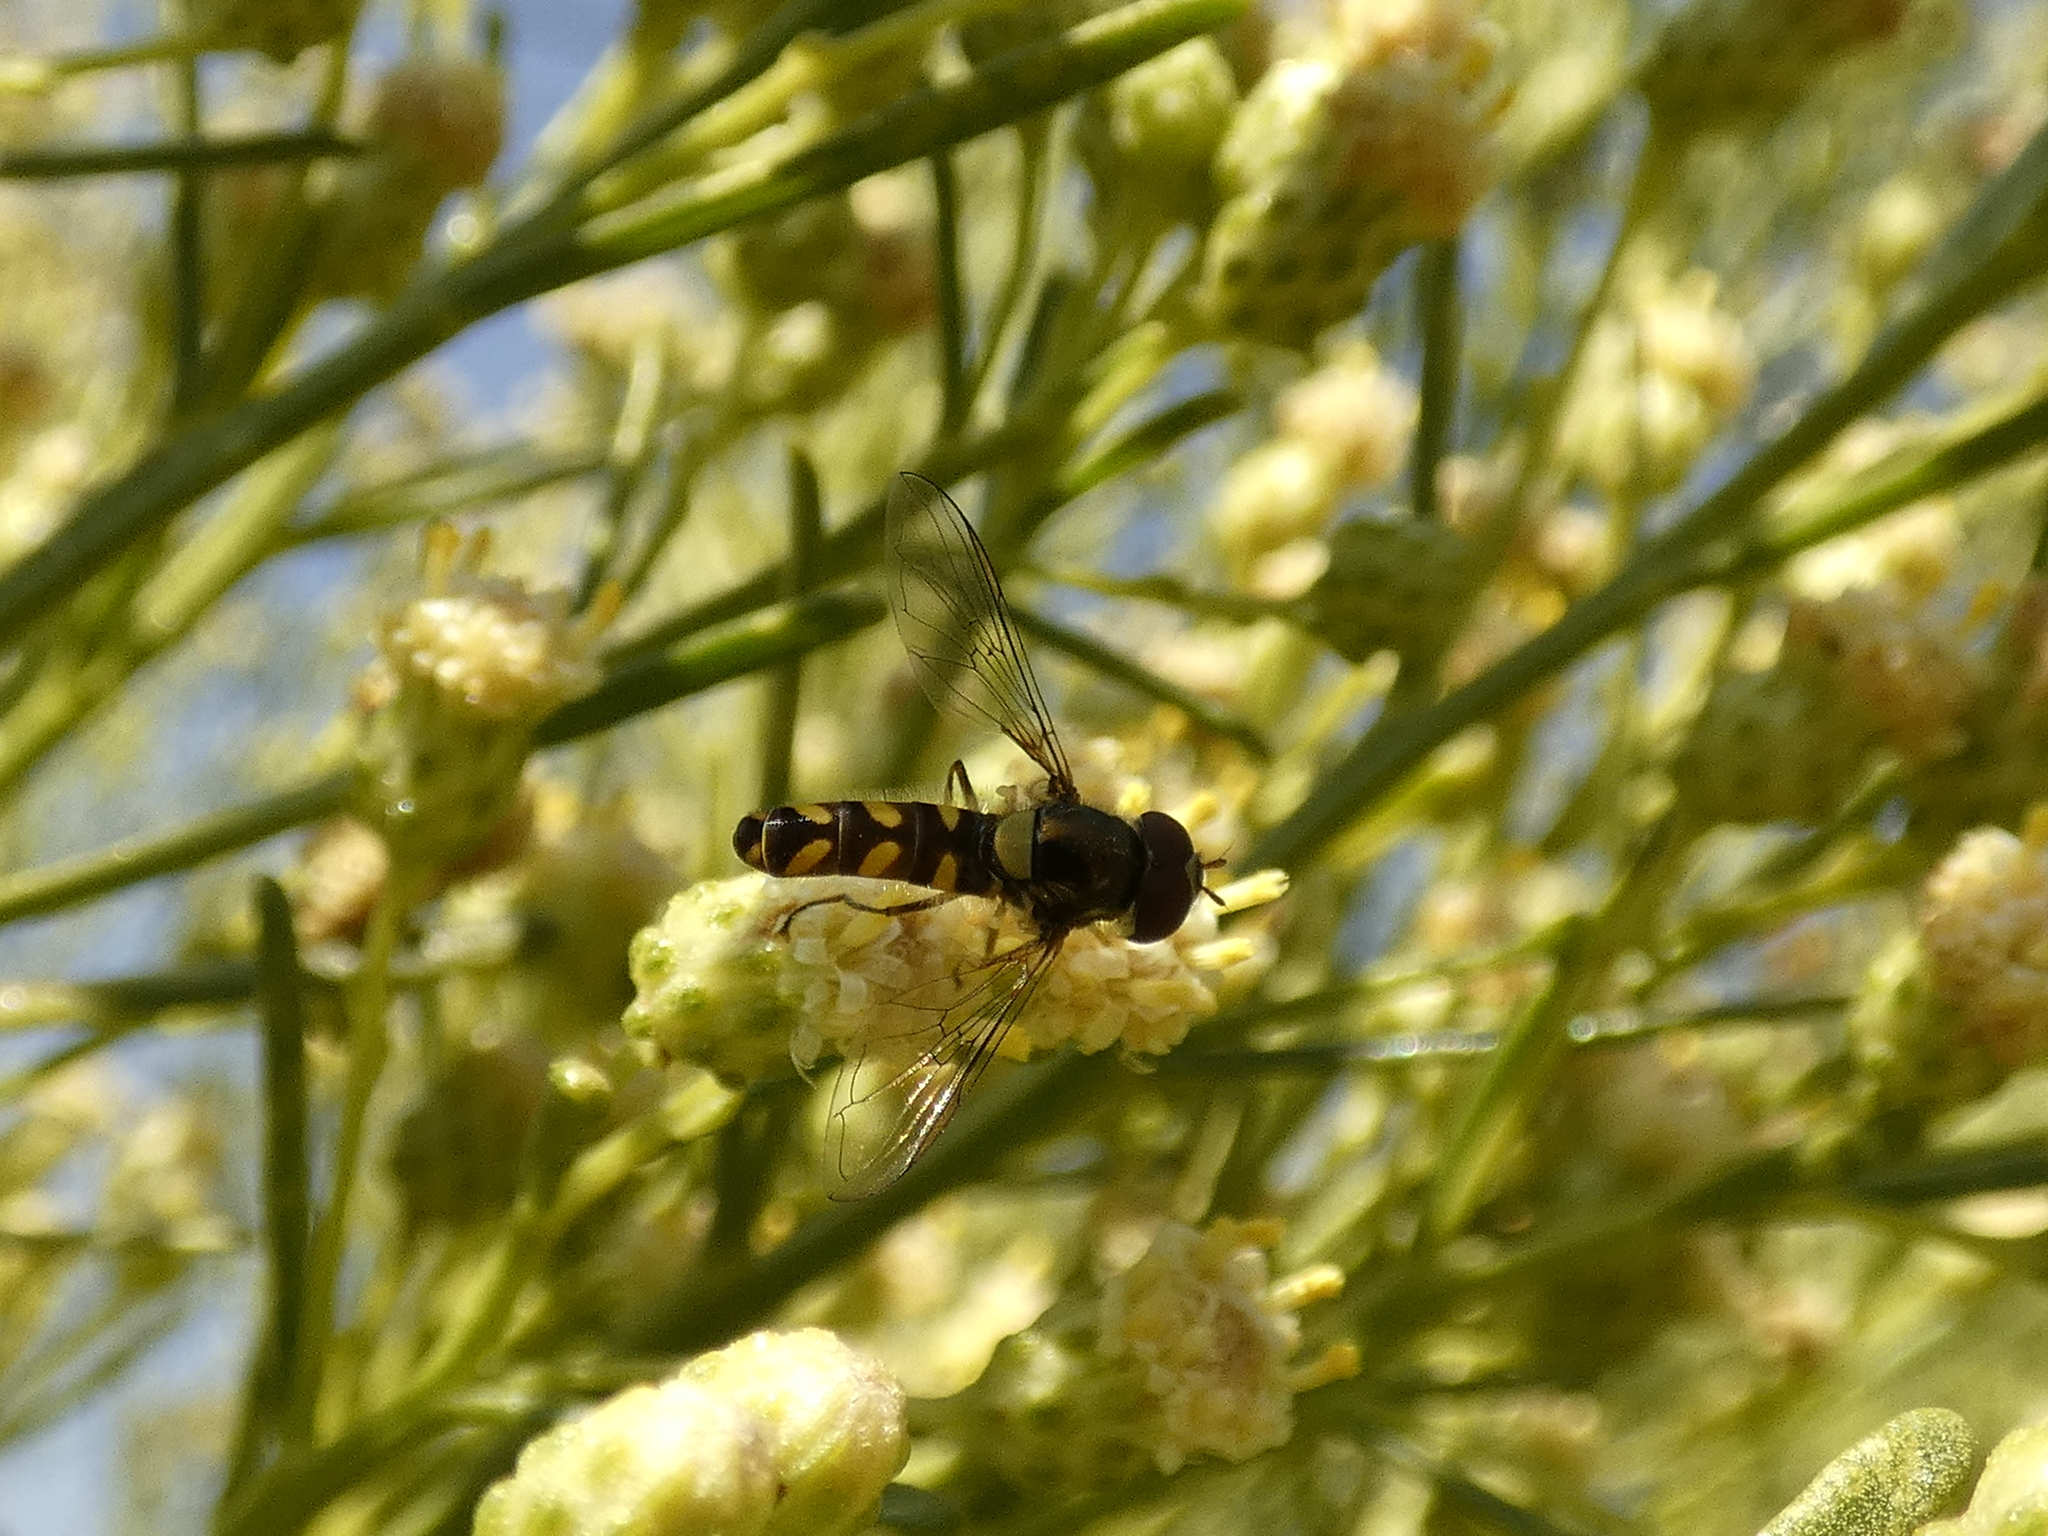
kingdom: Animalia
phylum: Arthropoda
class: Insecta
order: Diptera
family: Syrphidae
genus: Allograpta
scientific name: Allograpta hortensis
